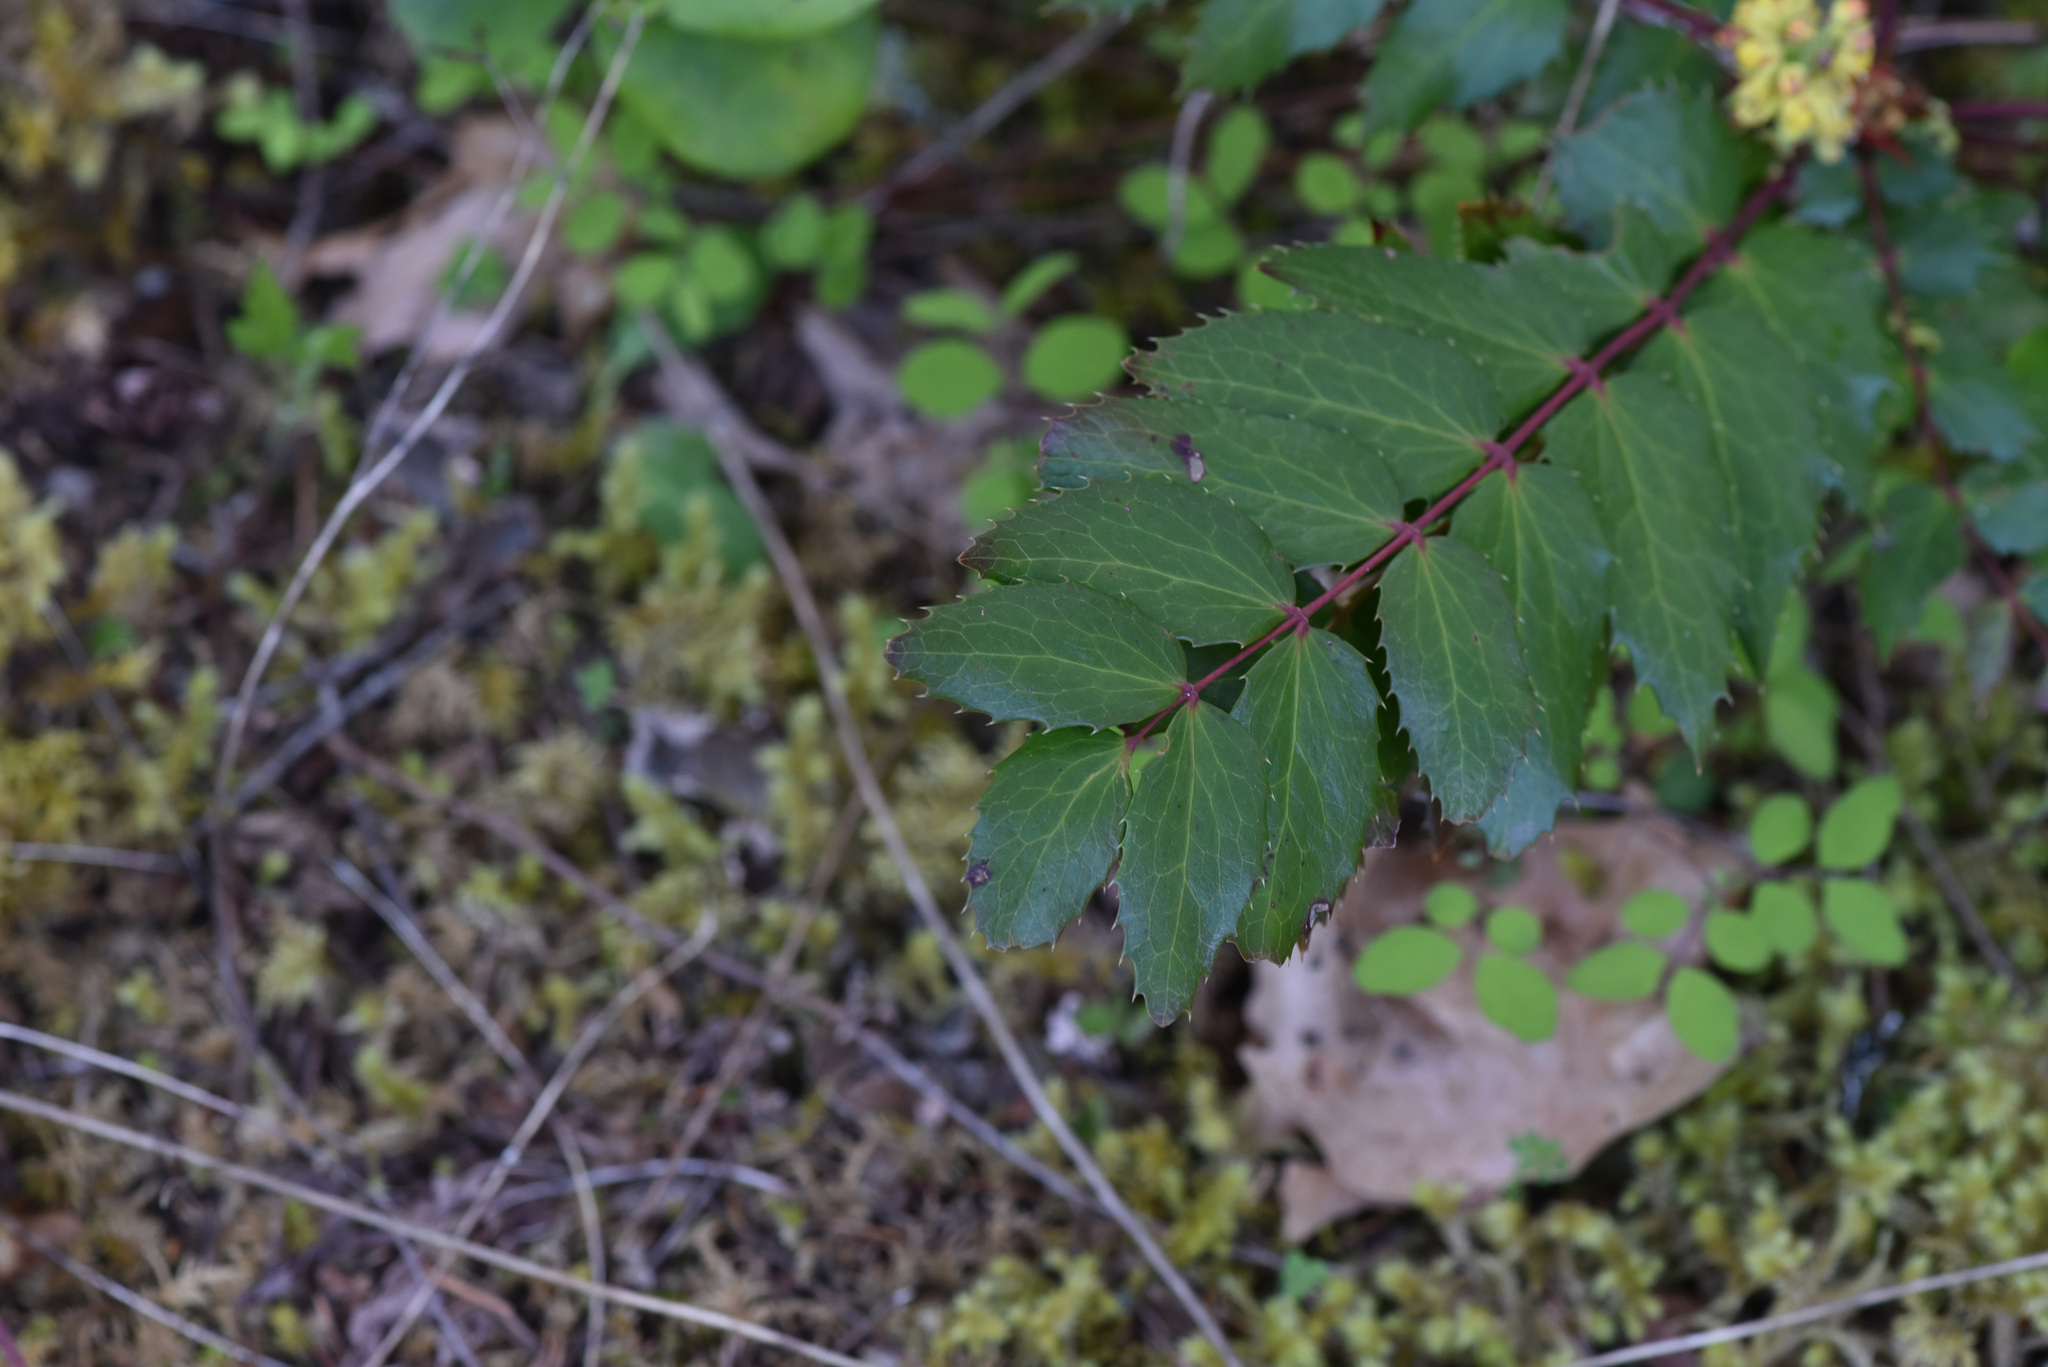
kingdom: Plantae
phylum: Tracheophyta
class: Magnoliopsida
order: Ranunculales
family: Berberidaceae
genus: Mahonia
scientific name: Mahonia nervosa
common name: Cascade oregon-grape
